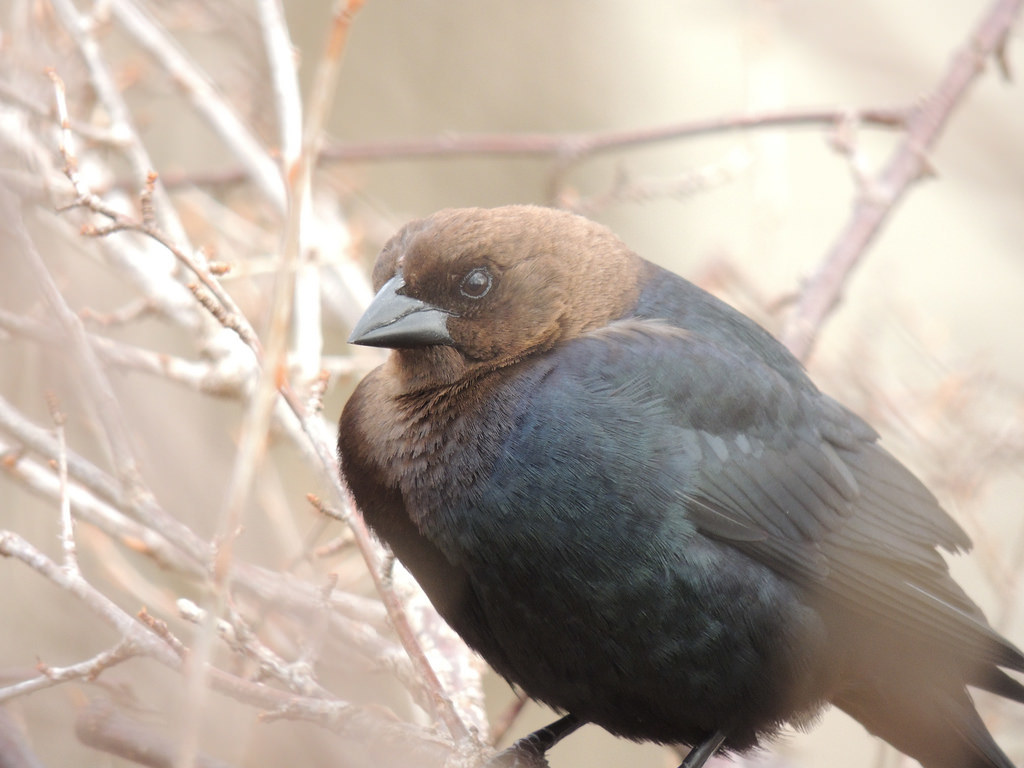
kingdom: Animalia
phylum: Chordata
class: Aves
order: Passeriformes
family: Icteridae
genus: Molothrus
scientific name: Molothrus ater
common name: Brown-headed cowbird
